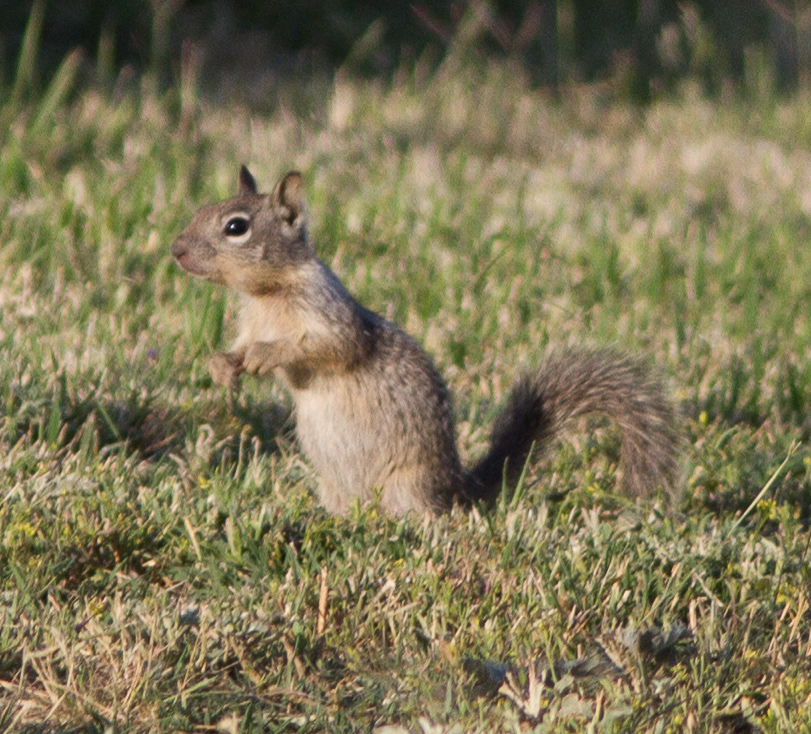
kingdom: Animalia
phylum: Chordata
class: Mammalia
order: Rodentia
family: Sciuridae
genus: Otospermophilus
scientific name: Otospermophilus beecheyi
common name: California ground squirrel
